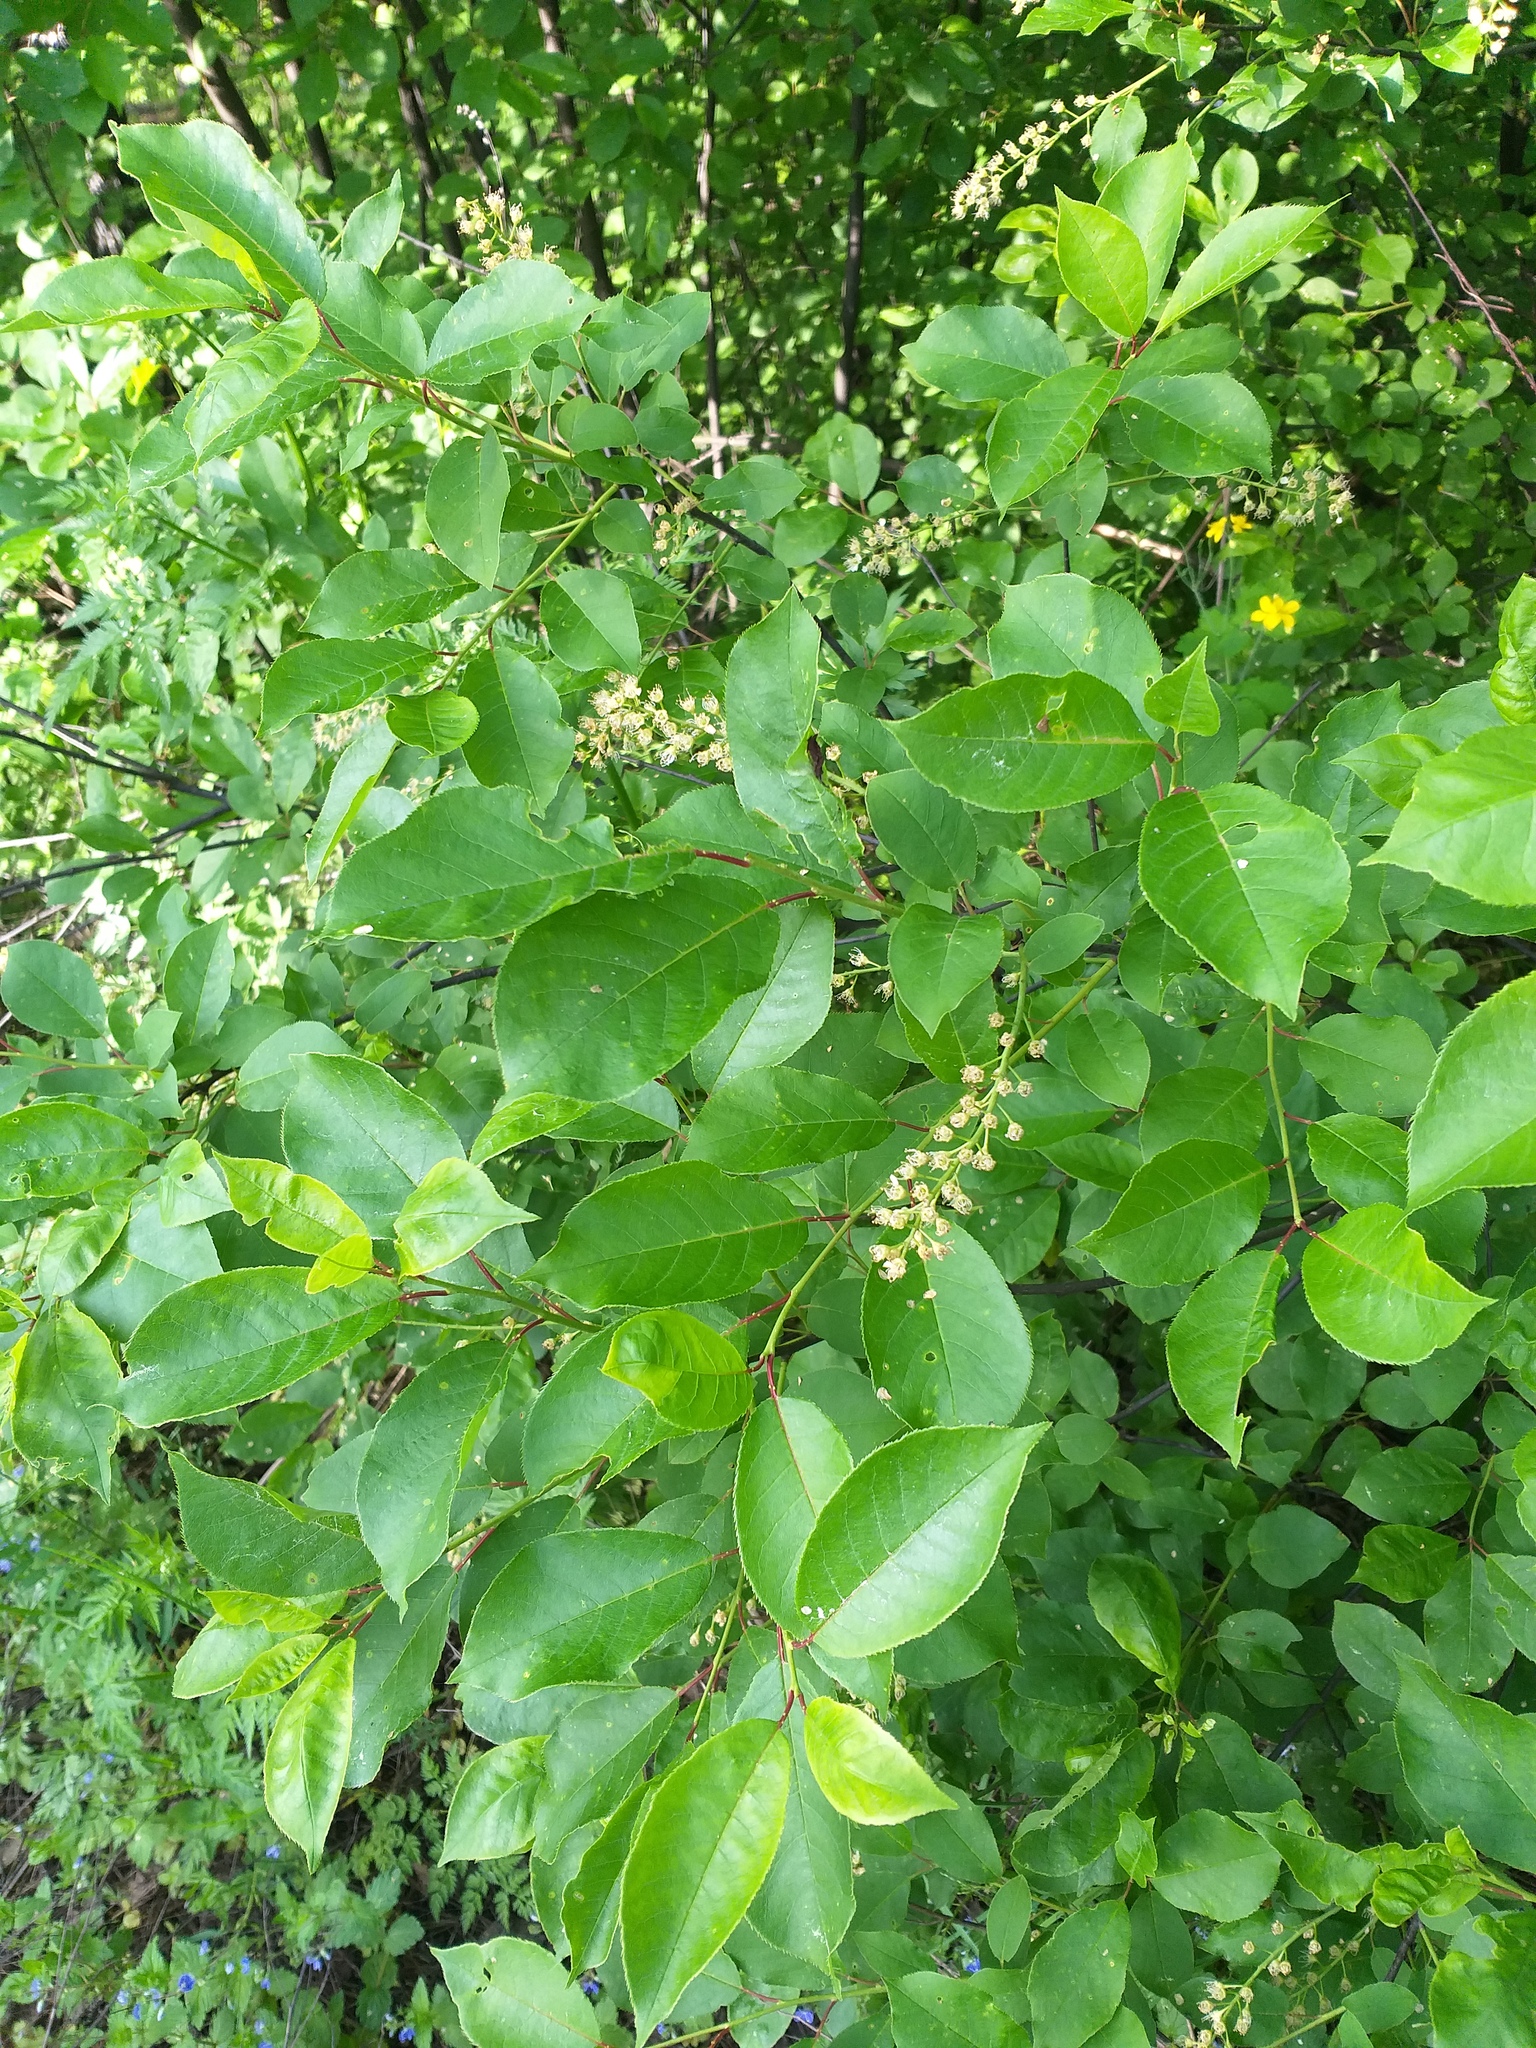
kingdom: Plantae
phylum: Tracheophyta
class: Magnoliopsida
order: Rosales
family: Rosaceae
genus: Prunus
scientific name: Prunus virginiana
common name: Chokecherry
